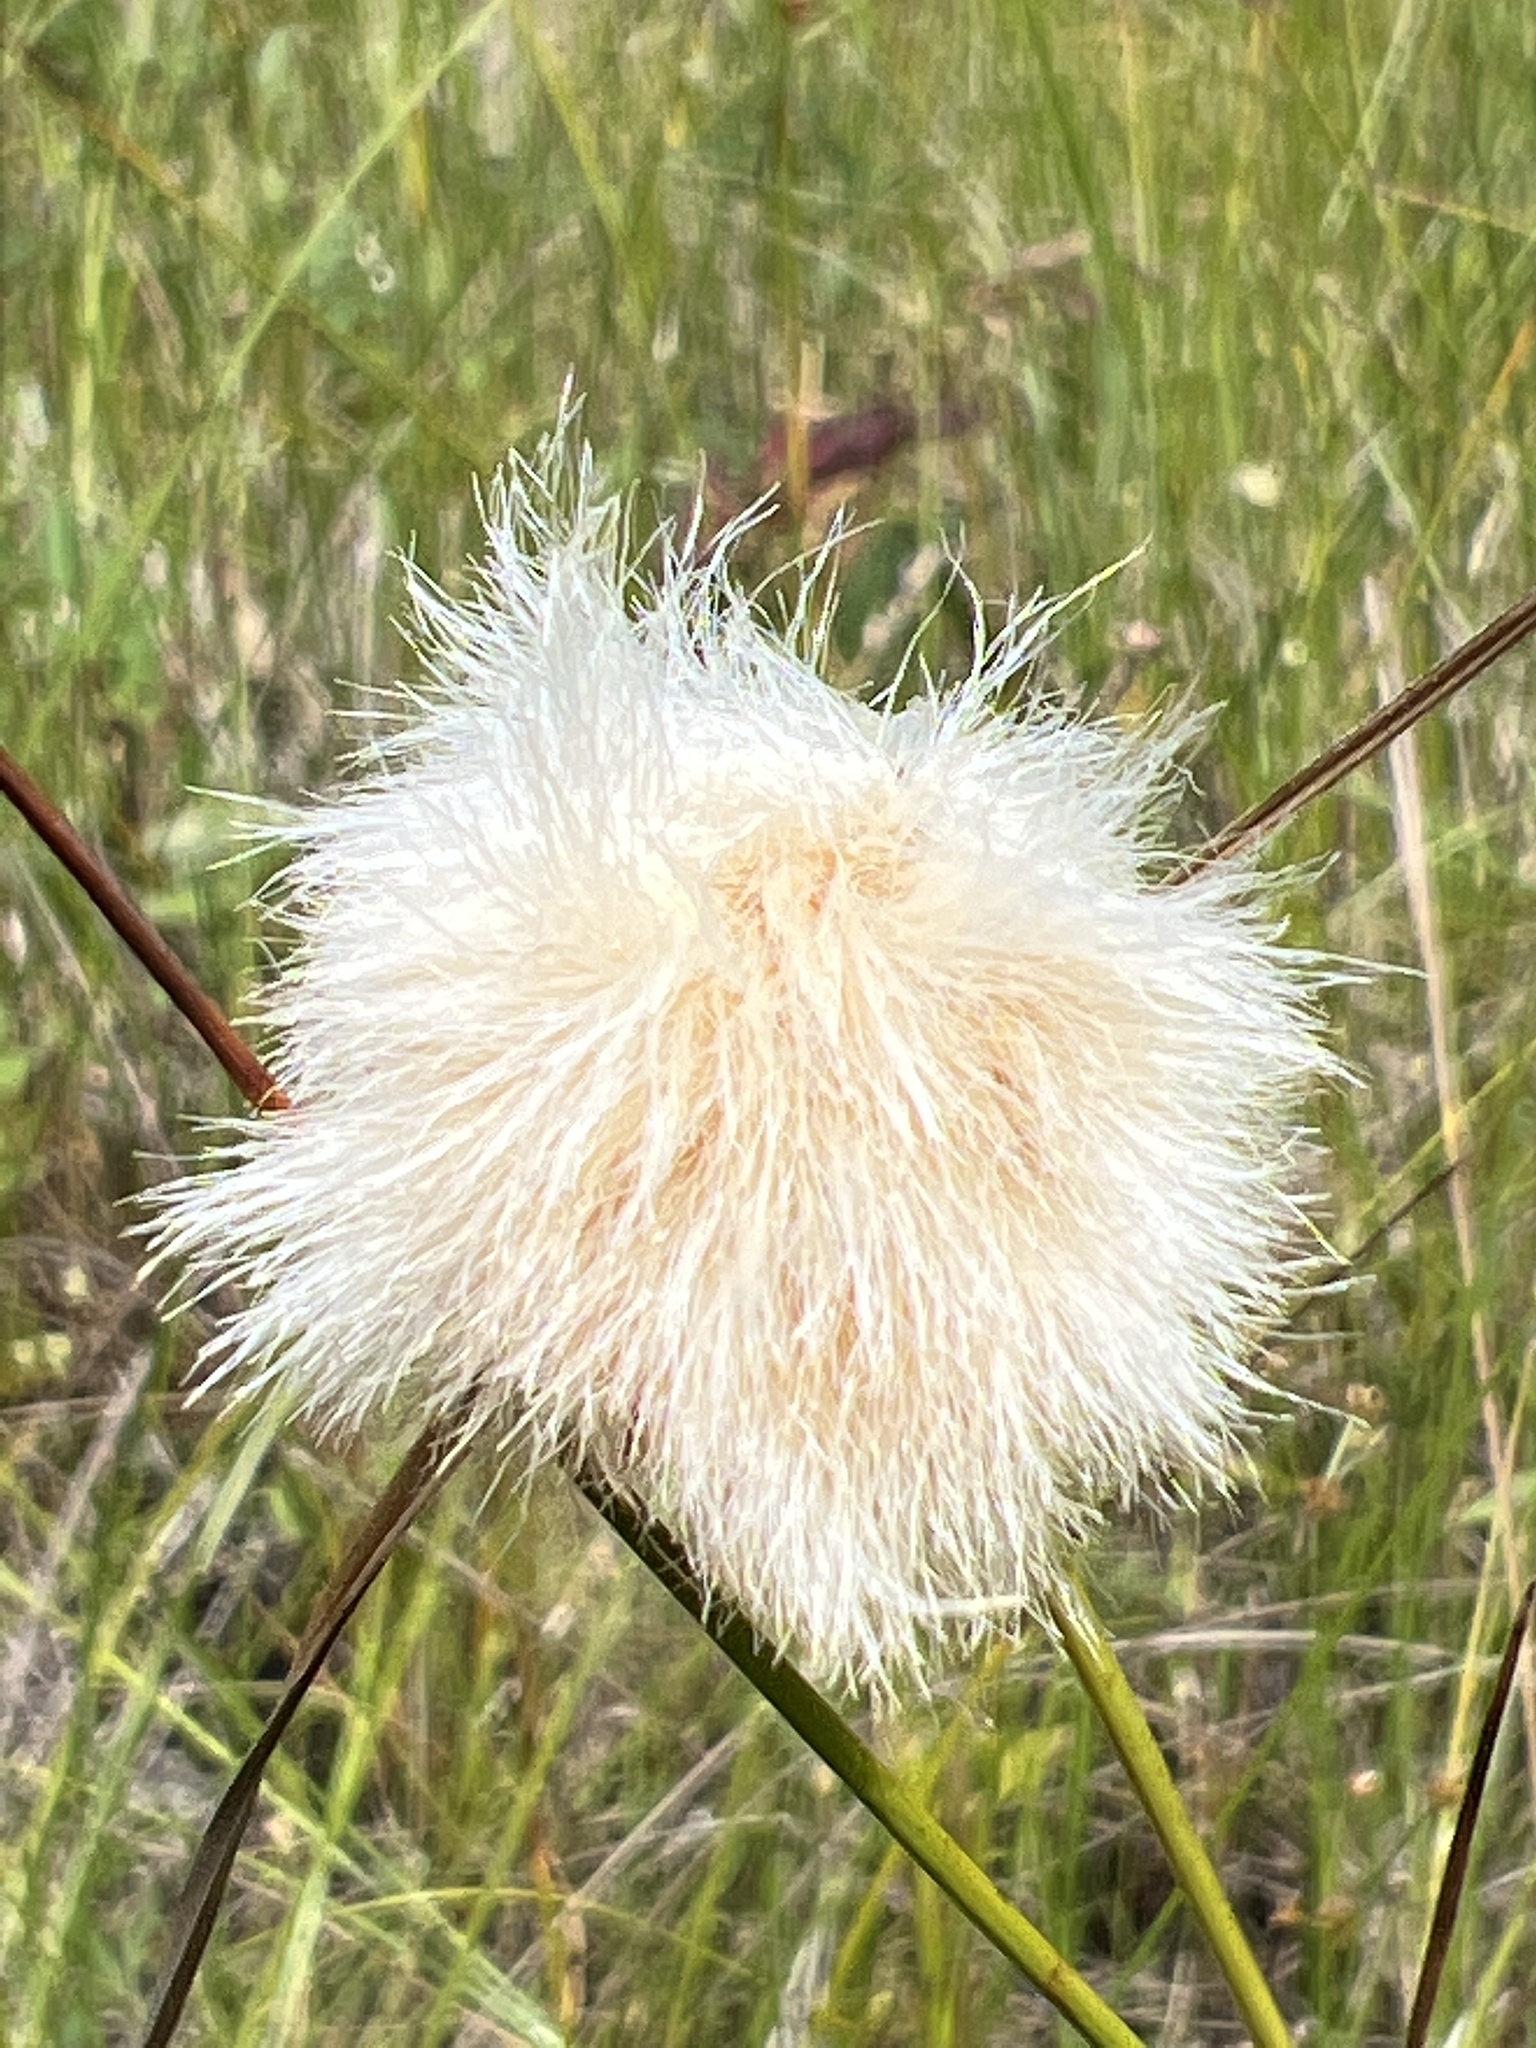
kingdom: Plantae
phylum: Tracheophyta
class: Liliopsida
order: Poales
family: Cyperaceae
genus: Eriophorum
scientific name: Eriophorum virginicum
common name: Tawny cottongrass
